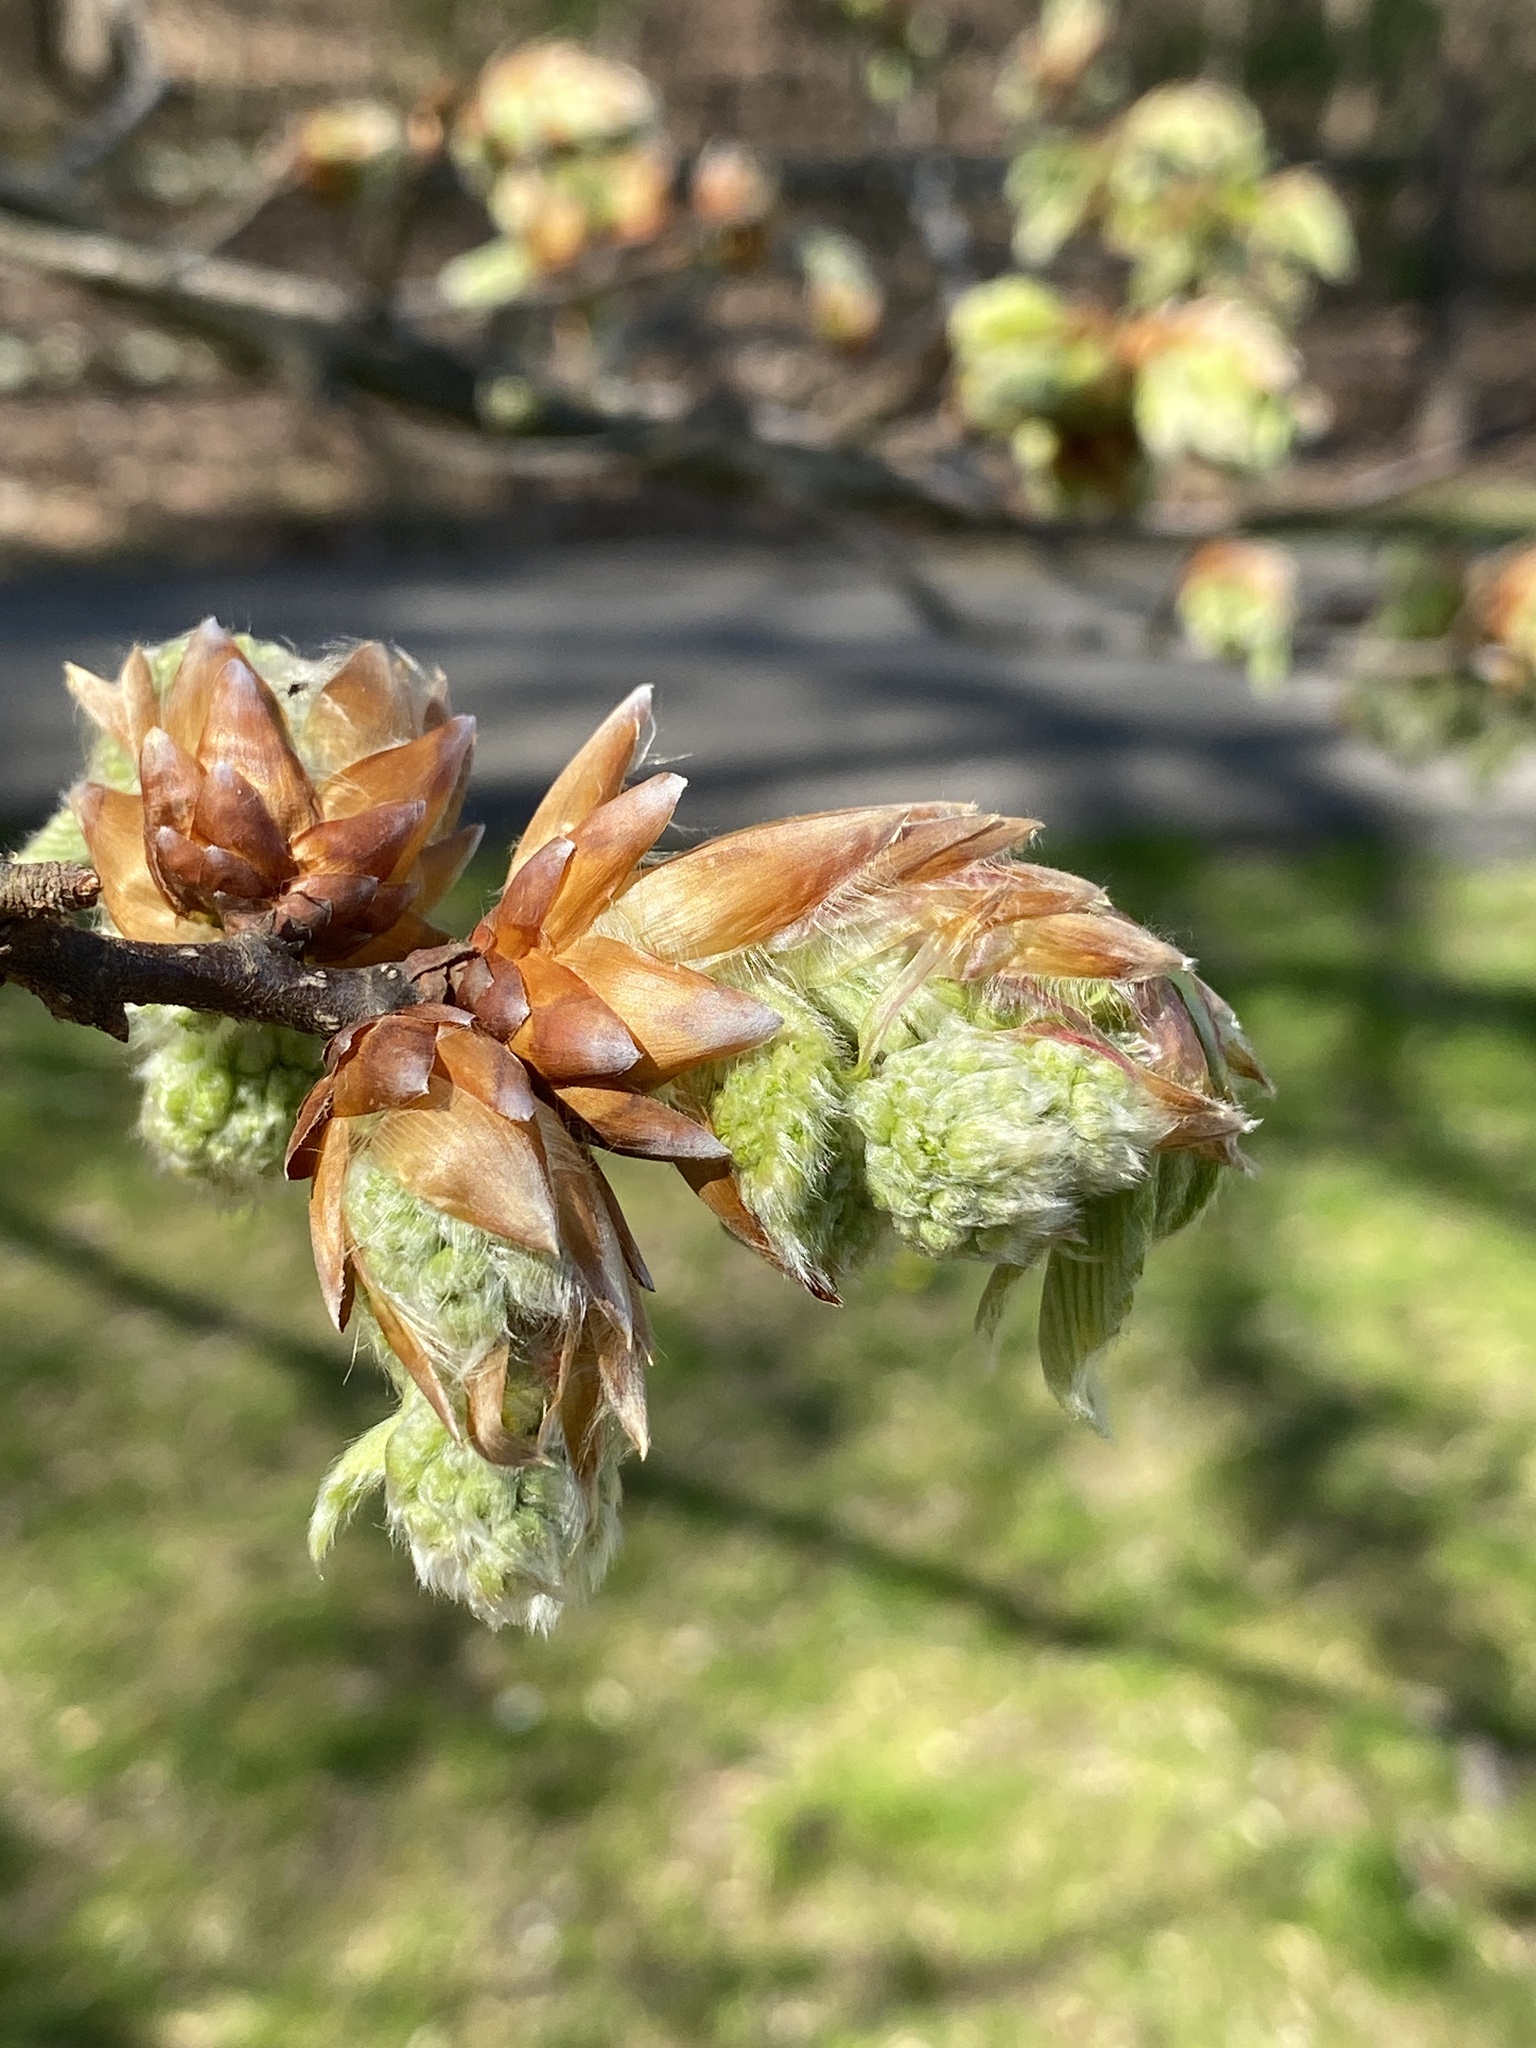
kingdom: Plantae
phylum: Tracheophyta
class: Magnoliopsida
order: Fagales
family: Fagaceae
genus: Fagus
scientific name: Fagus grandifolia
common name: American beech
